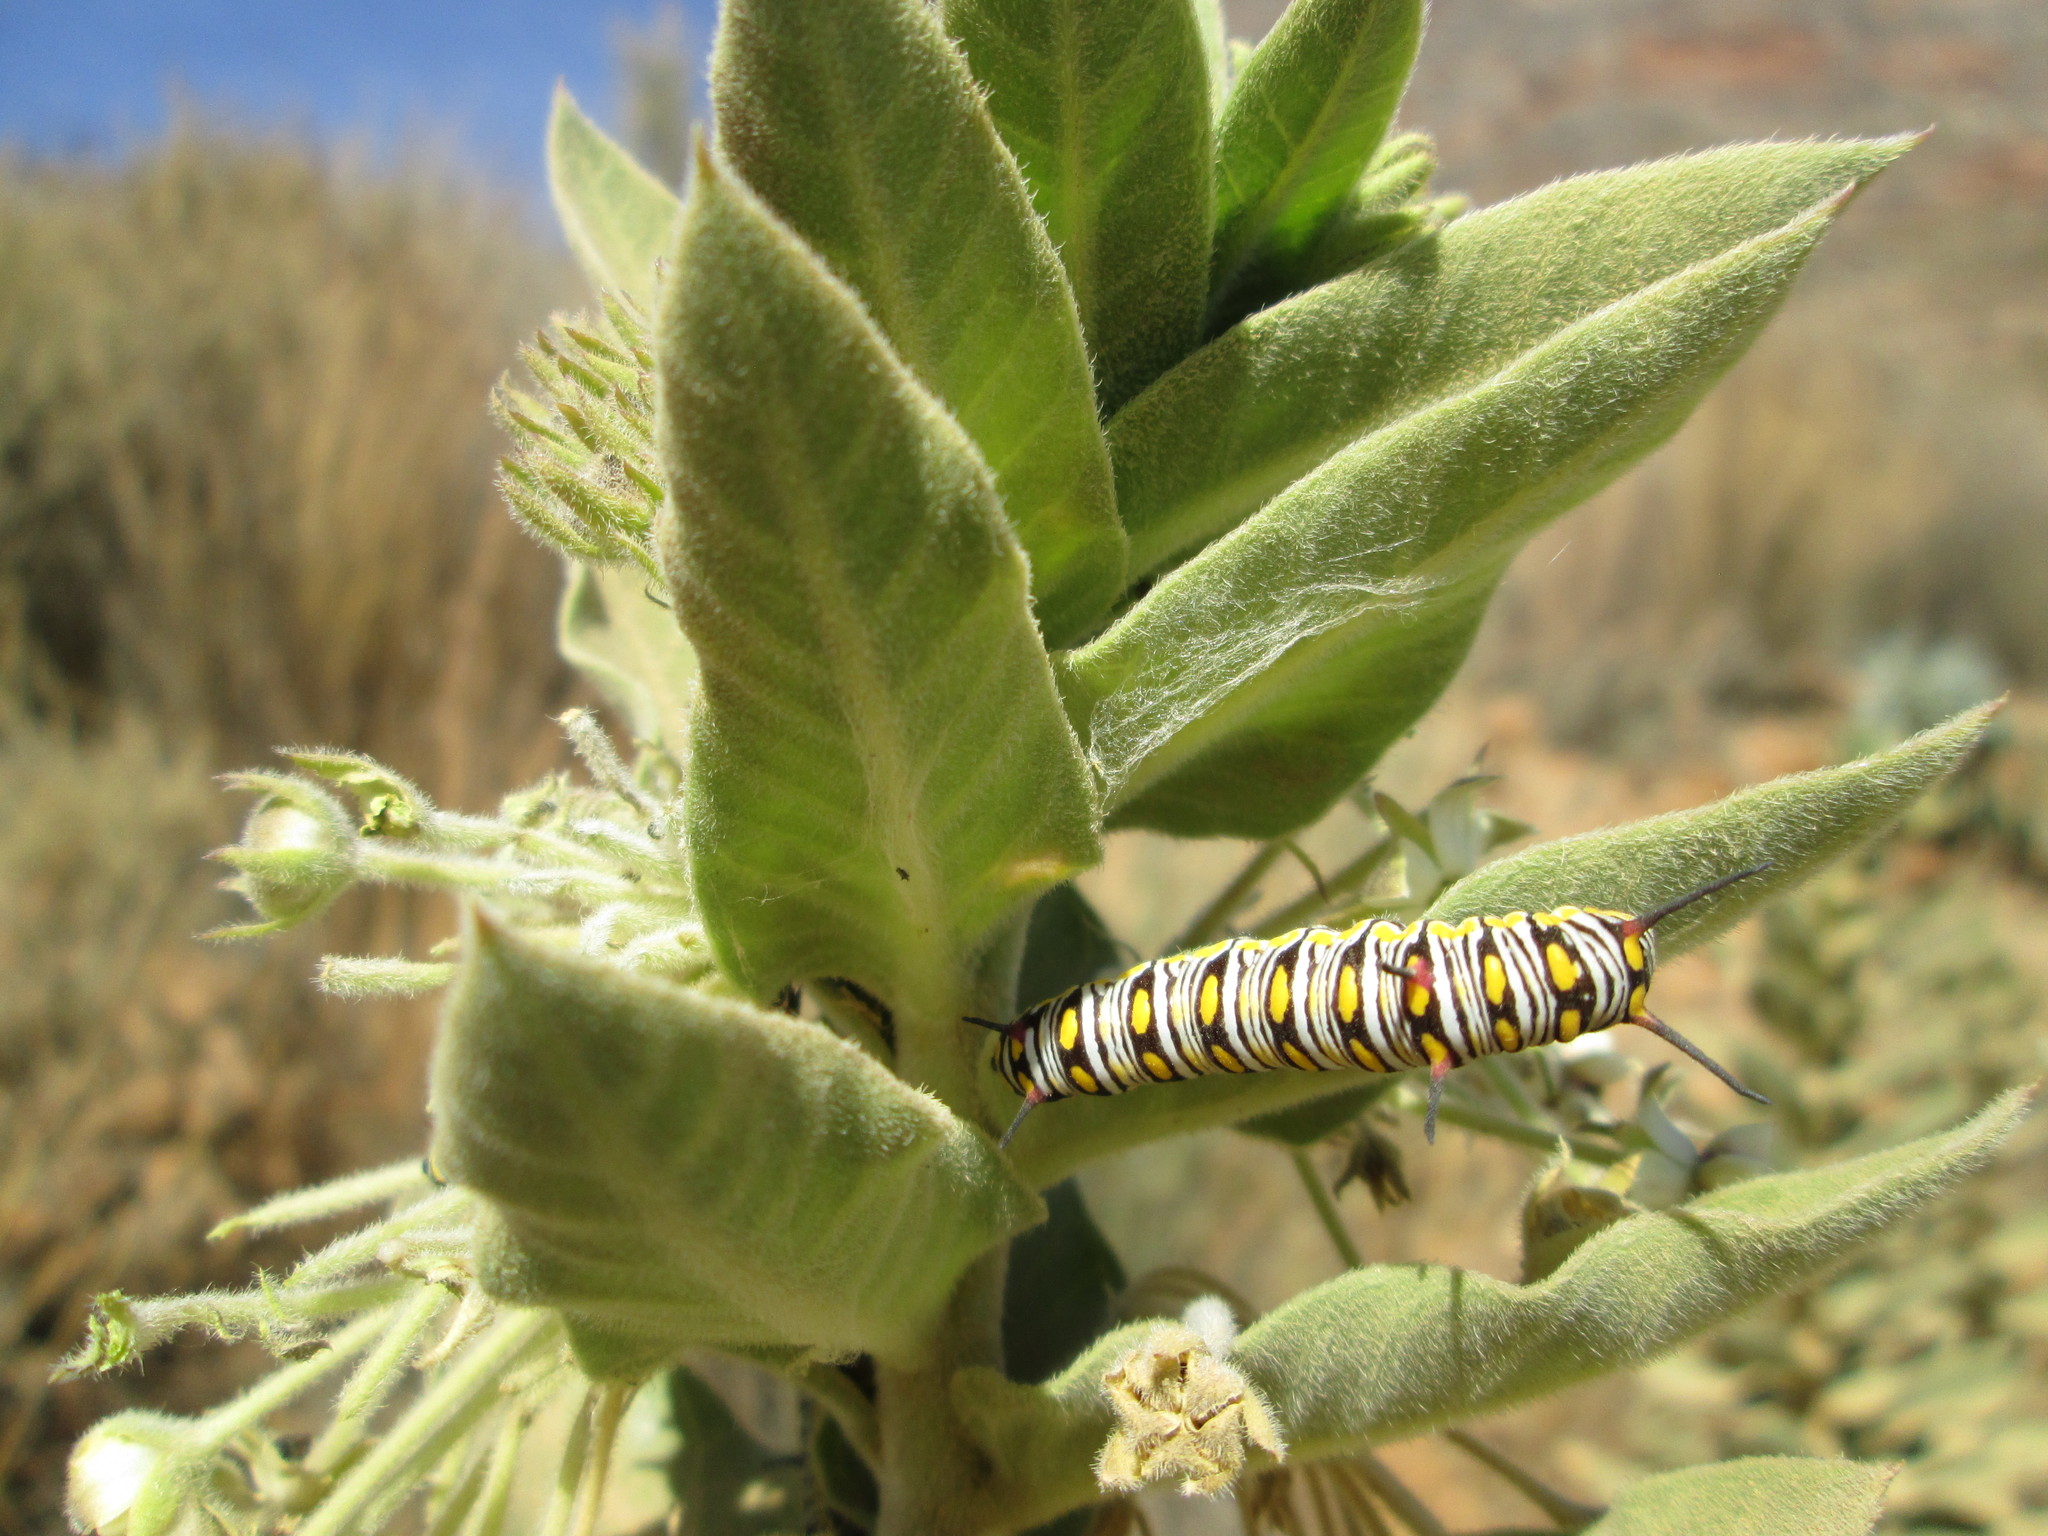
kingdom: Animalia
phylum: Arthropoda
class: Insecta
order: Lepidoptera
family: Nymphalidae
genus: Danaus
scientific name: Danaus chrysippus
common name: Plain tiger
